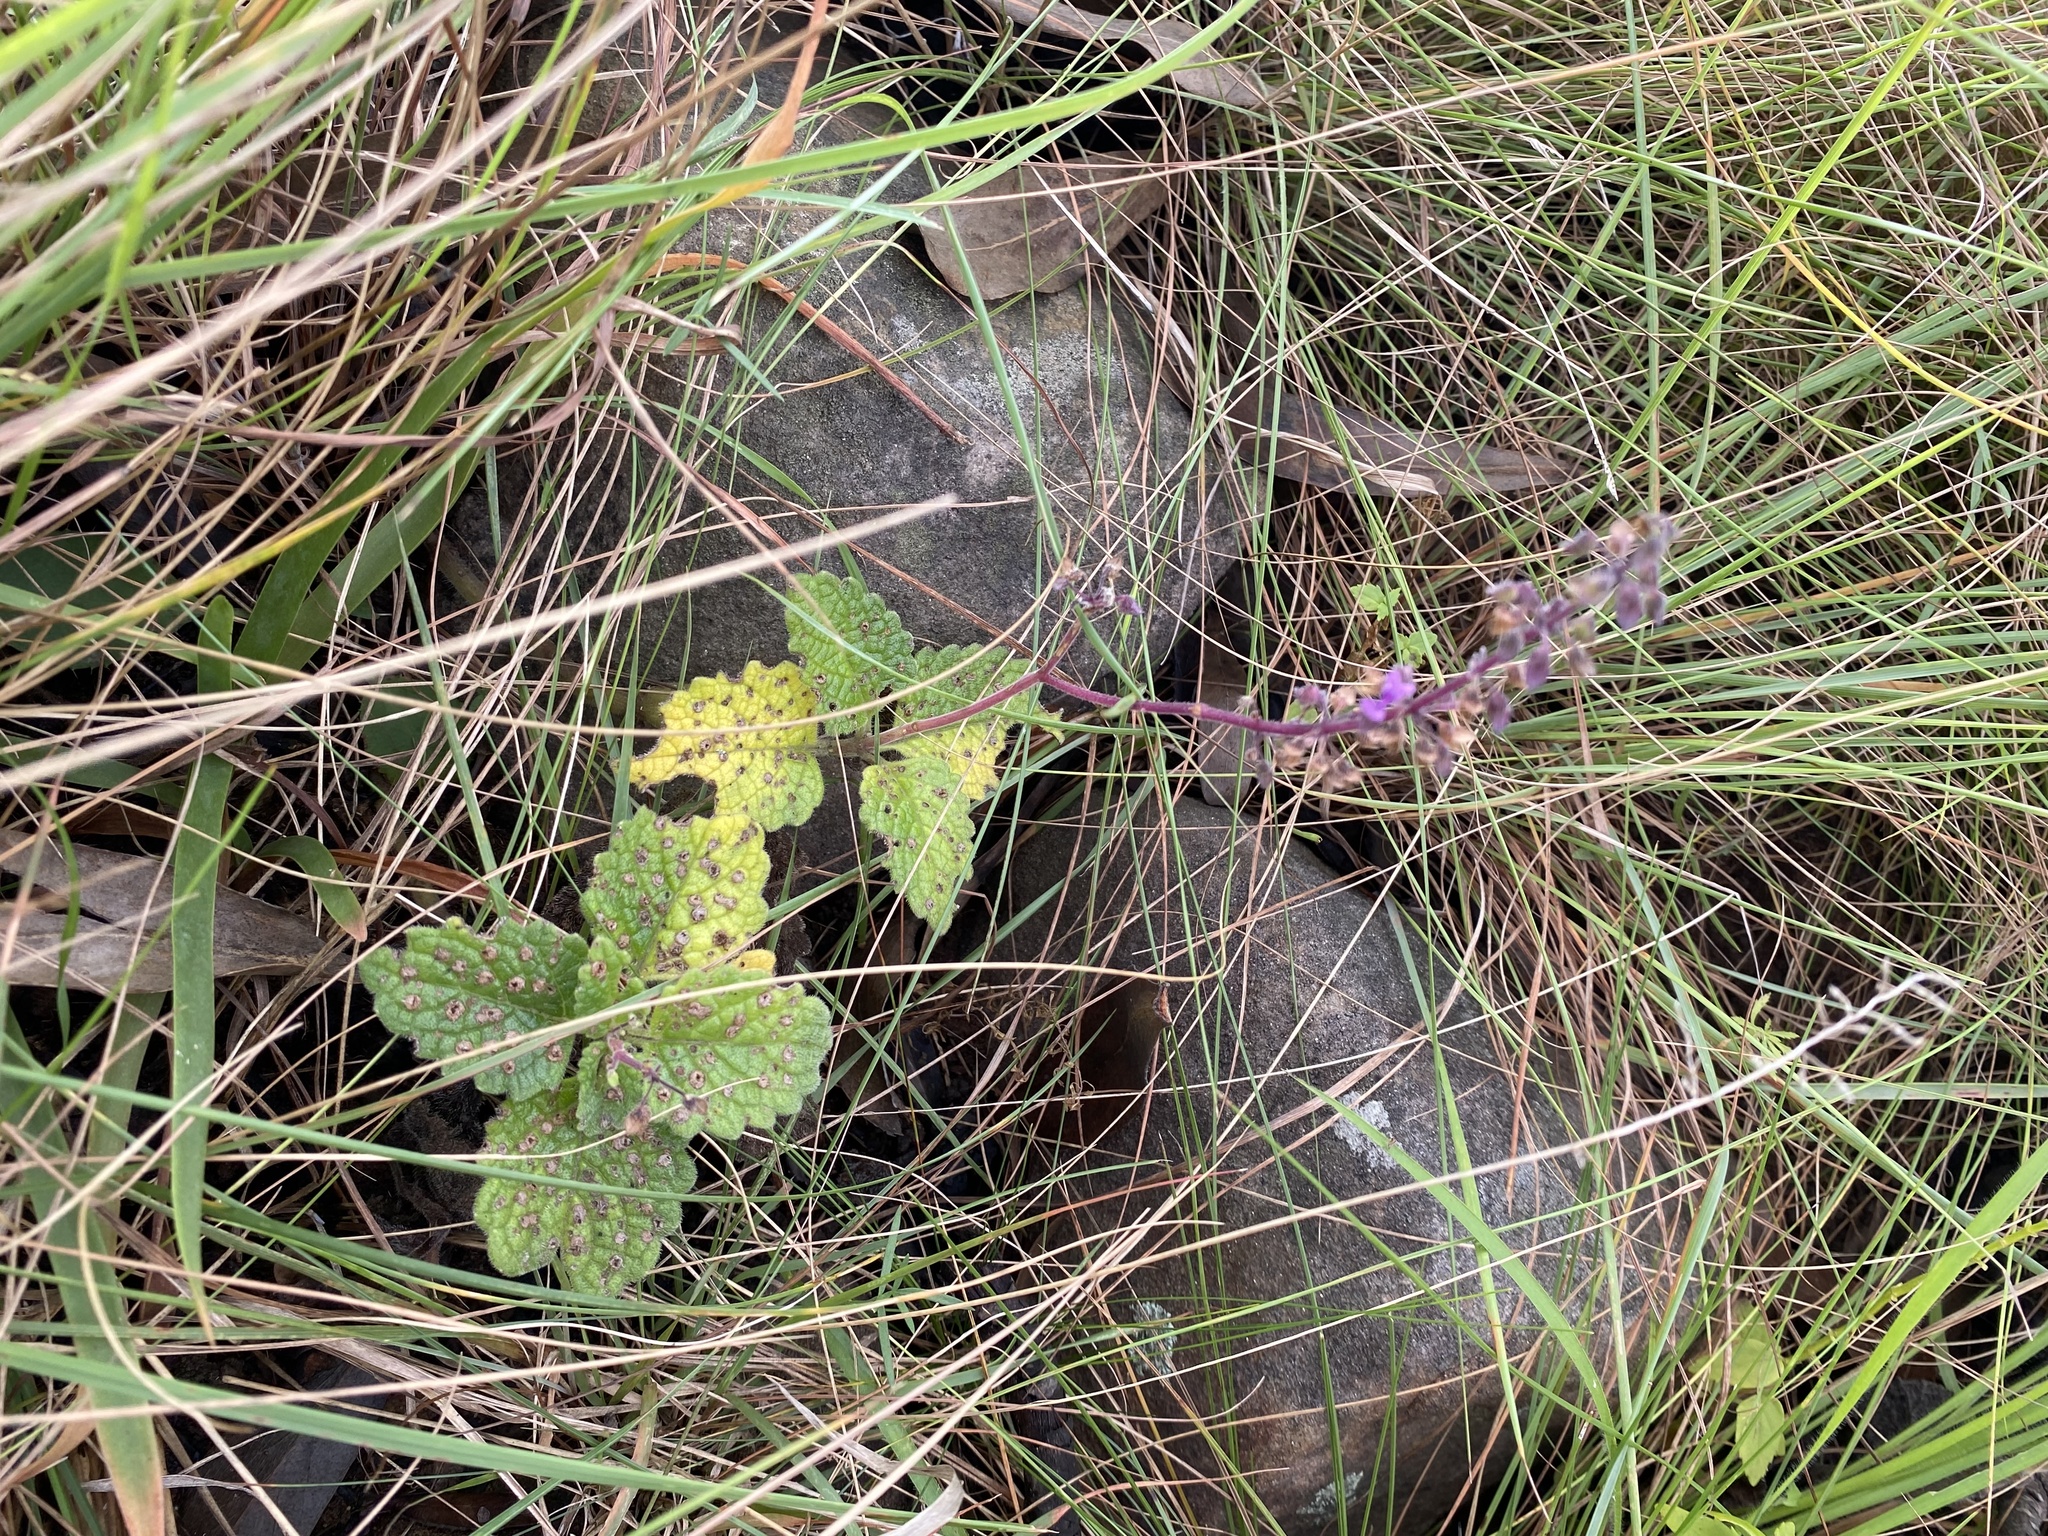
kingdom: Plantae
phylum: Tracheophyta
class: Magnoliopsida
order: Lamiales
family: Lamiaceae
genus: Coleus
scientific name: Coleus hadiensis
